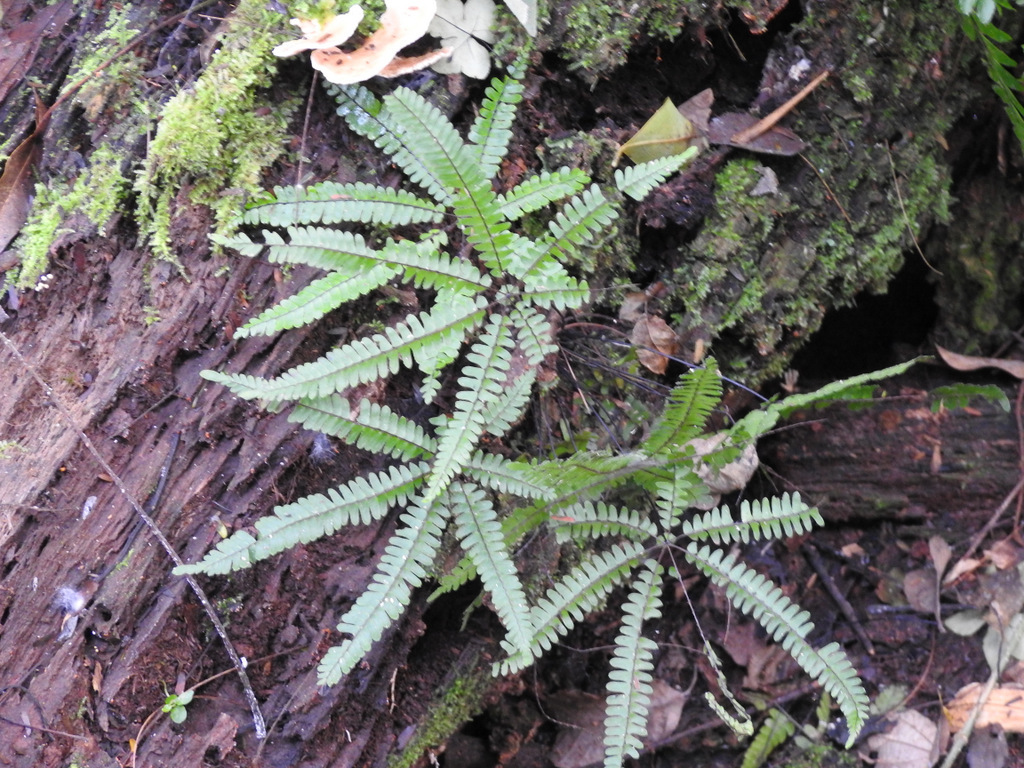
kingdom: Plantae
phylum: Tracheophyta
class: Polypodiopsida
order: Polypodiales
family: Pteridaceae
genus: Adiantopsis
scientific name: Adiantopsis radiata
